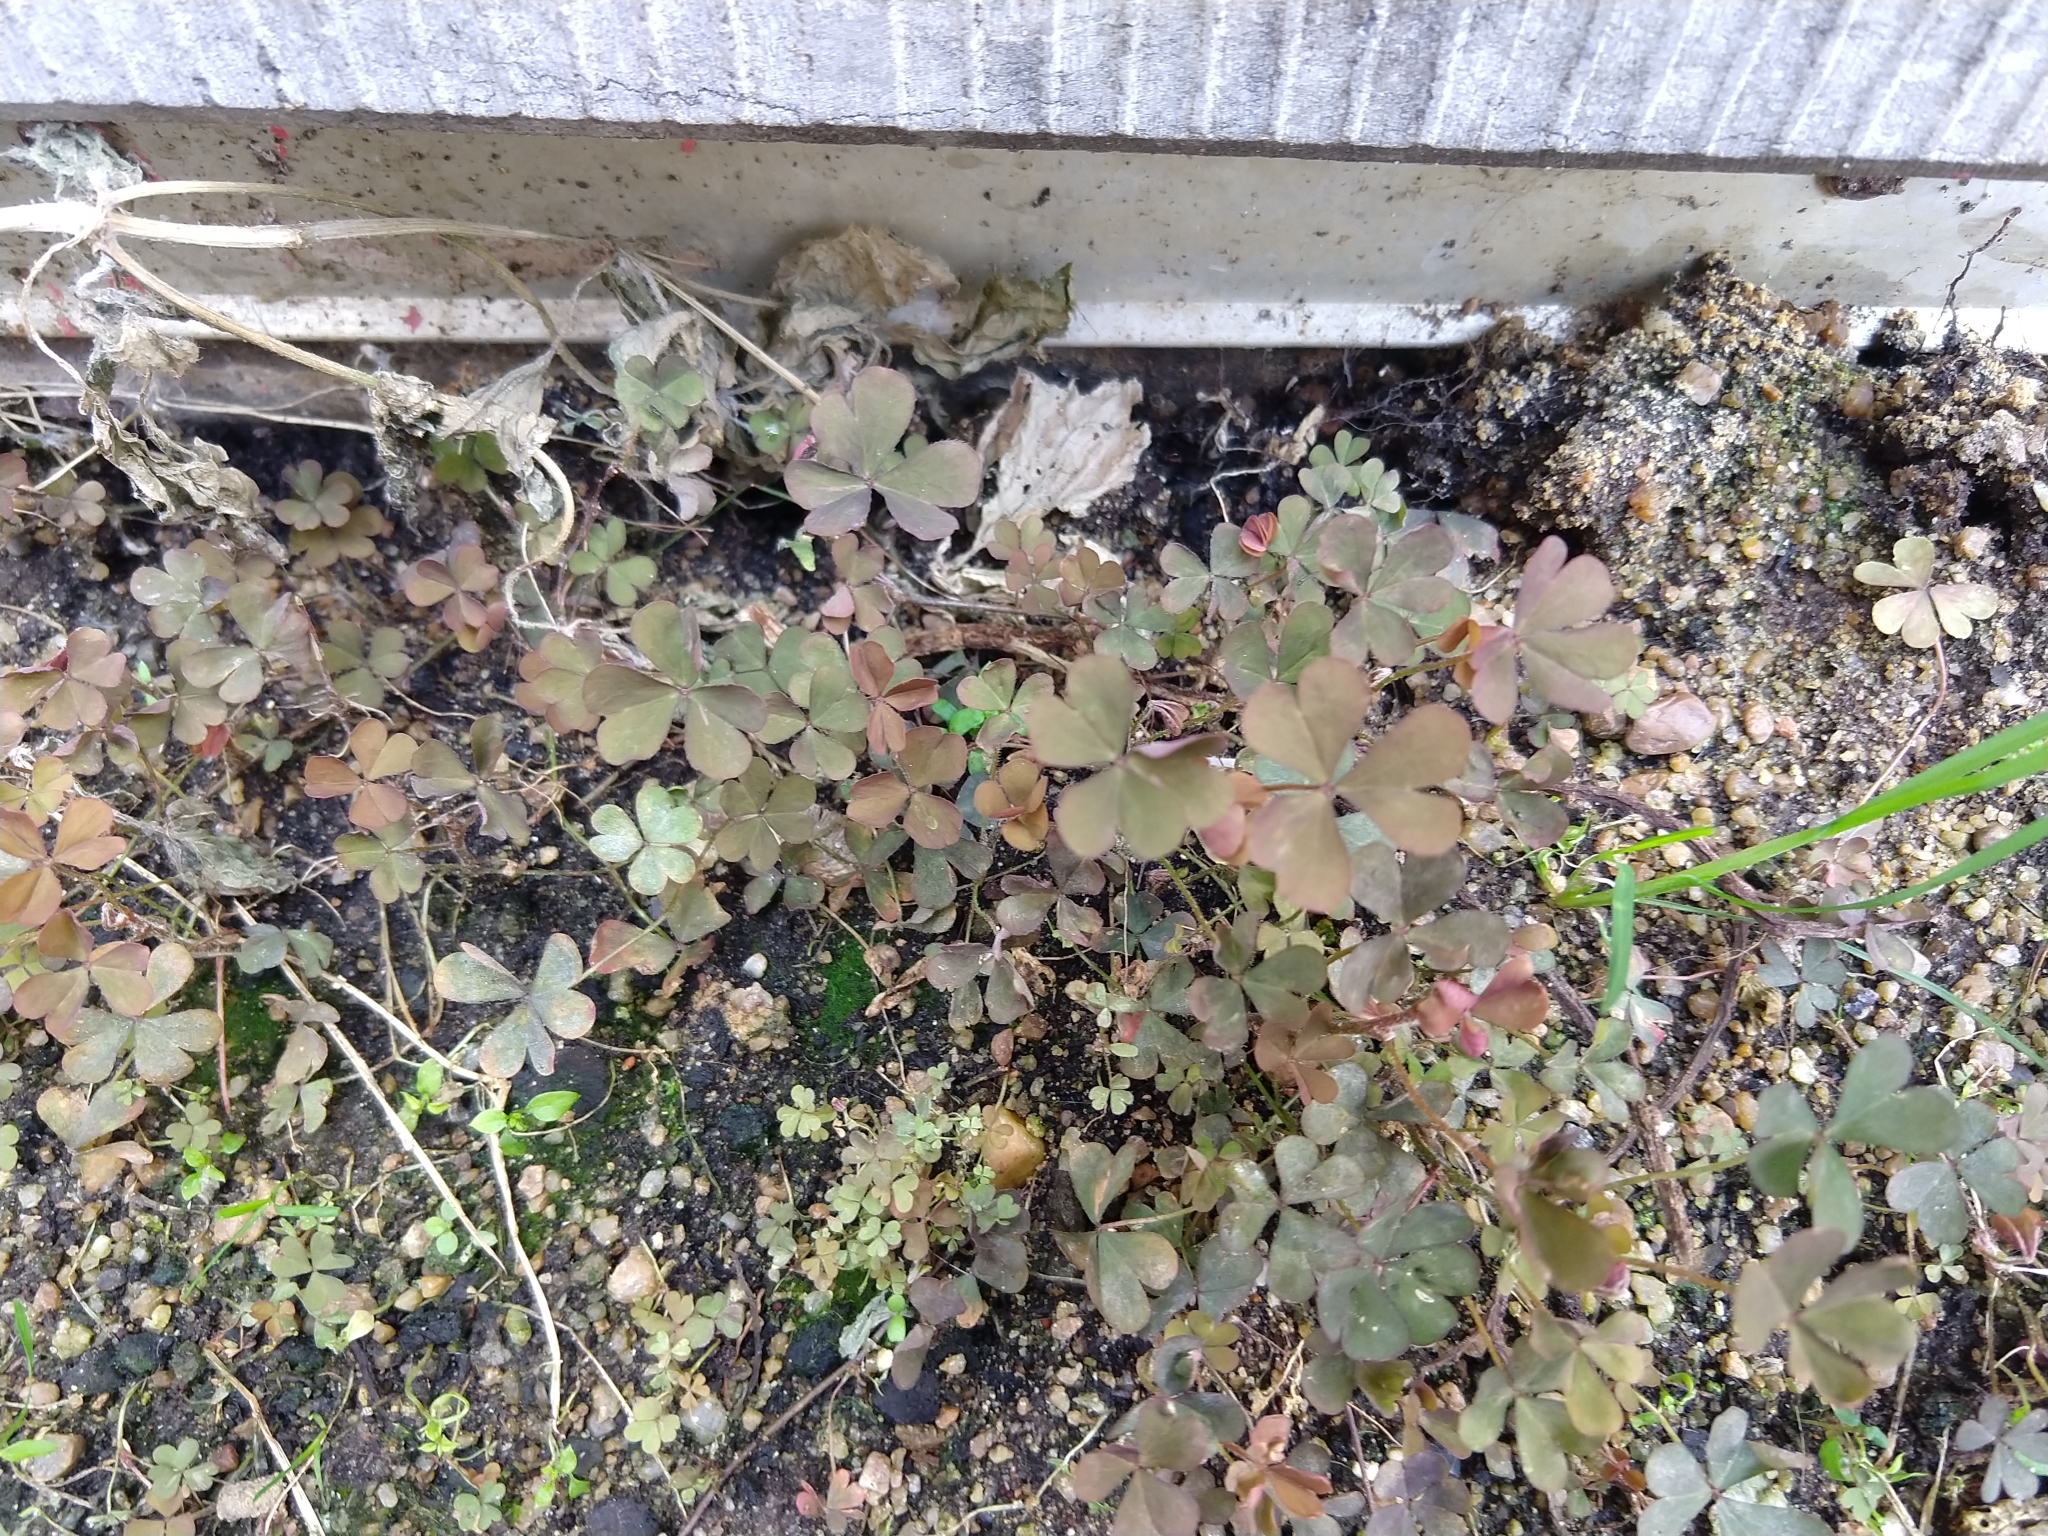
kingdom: Plantae
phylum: Tracheophyta
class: Magnoliopsida
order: Oxalidales
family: Oxalidaceae
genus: Oxalis
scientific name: Oxalis corniculata
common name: Procumbent yellow-sorrel
